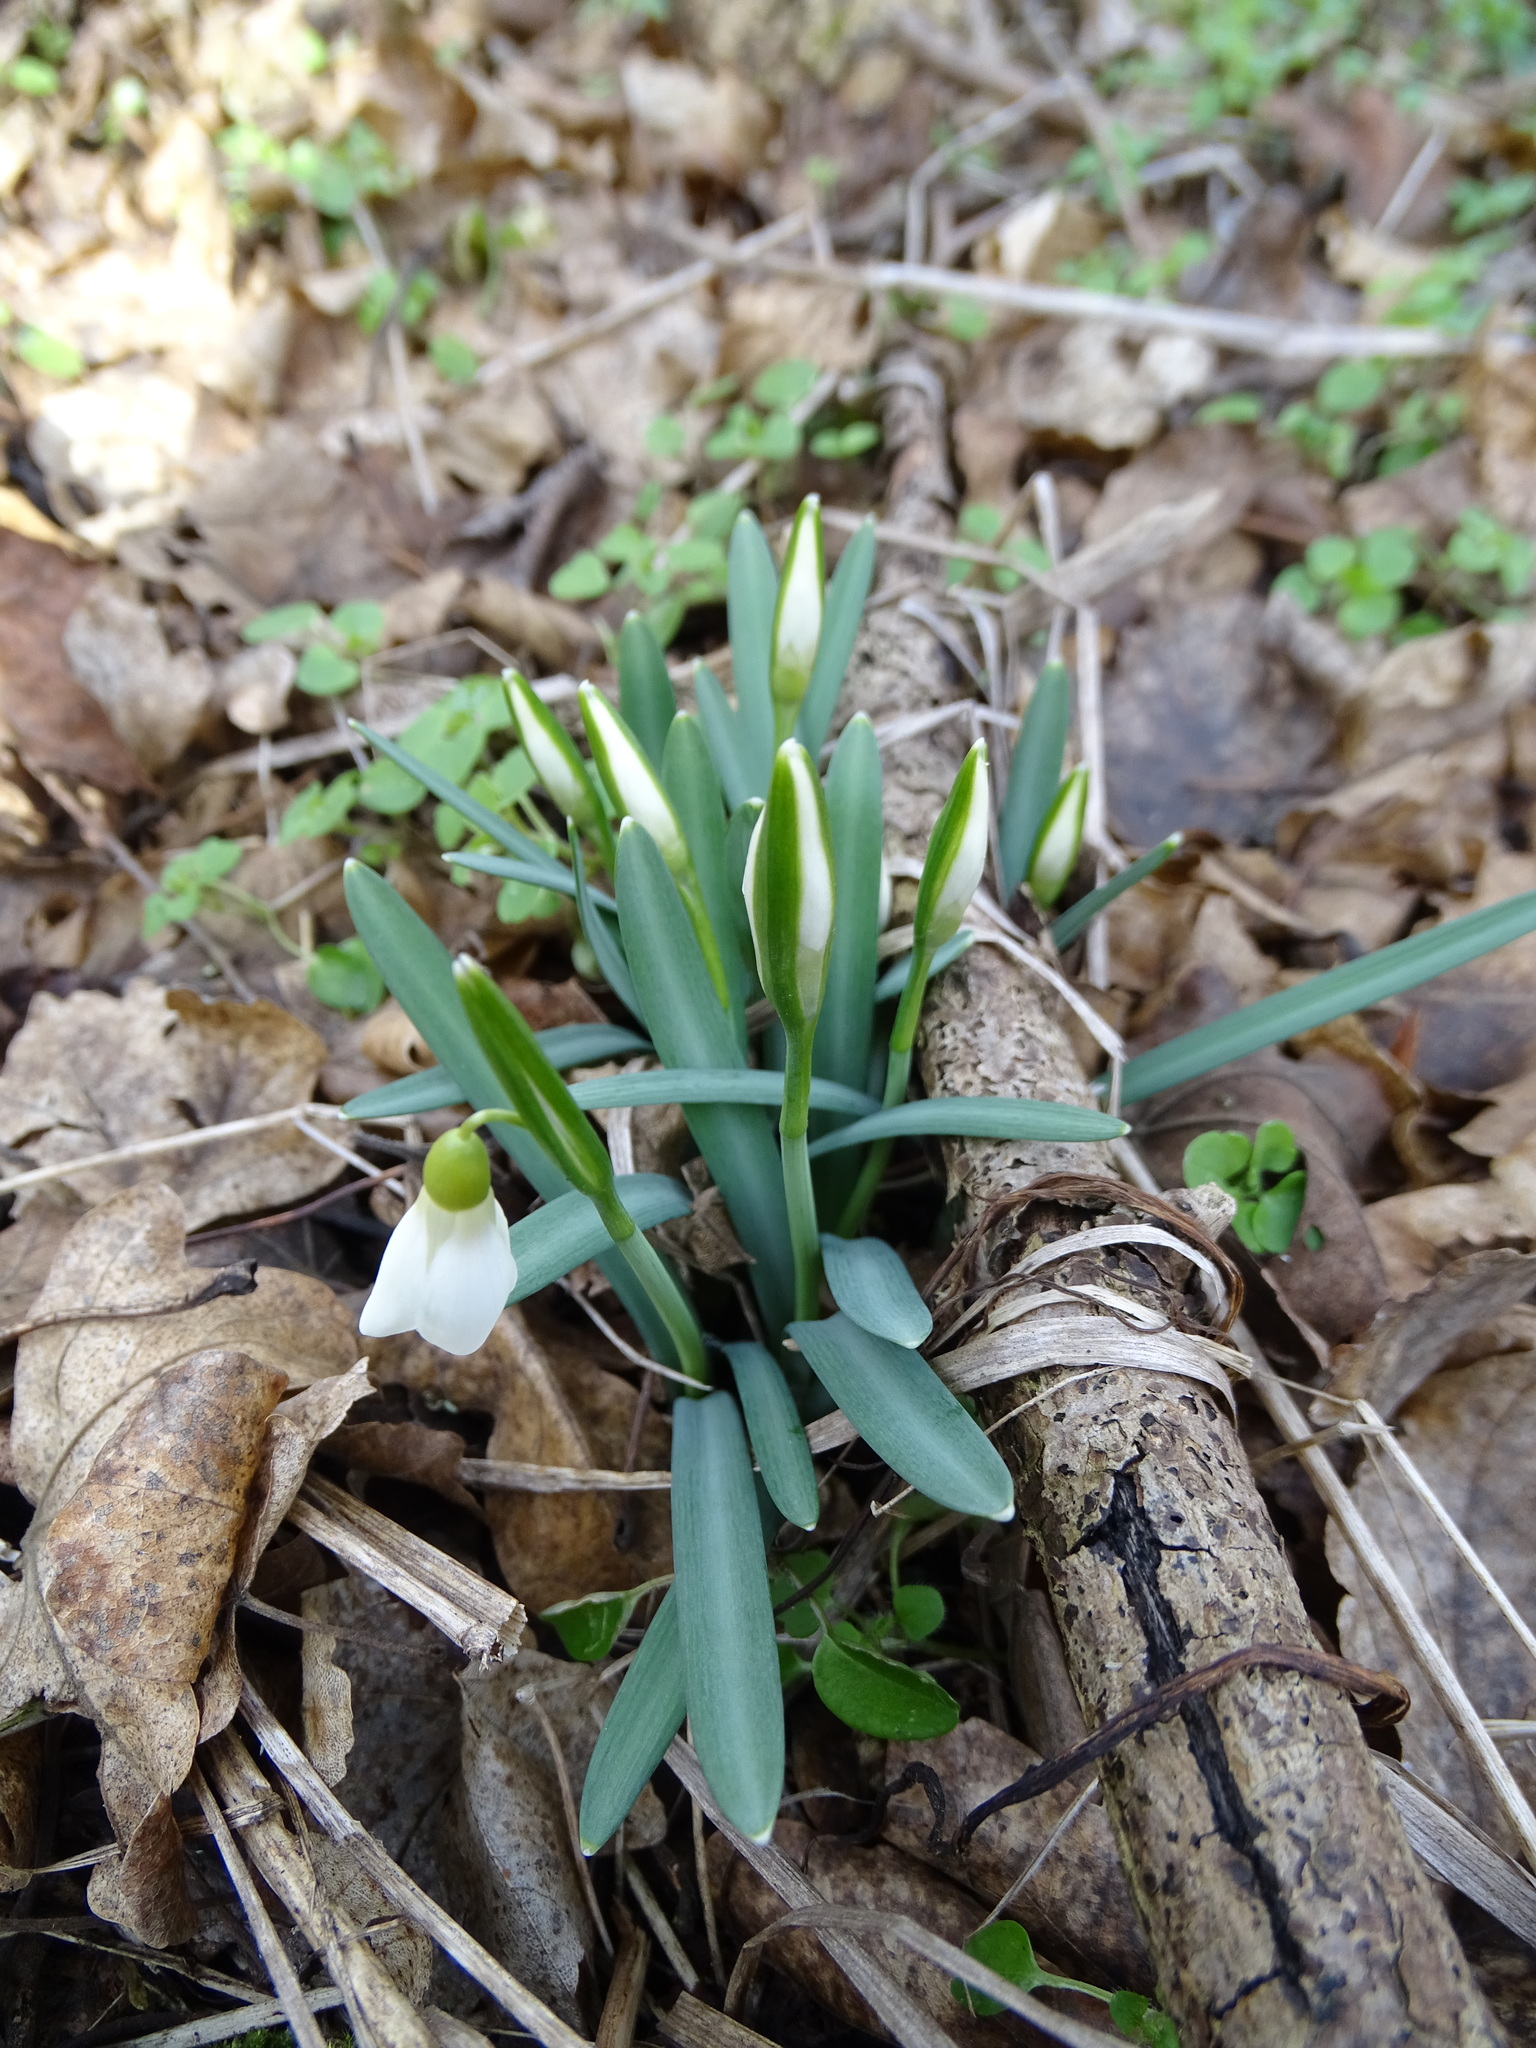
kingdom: Plantae
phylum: Tracheophyta
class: Liliopsida
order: Asparagales
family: Amaryllidaceae
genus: Galanthus
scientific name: Galanthus nivalis
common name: Snowdrop
